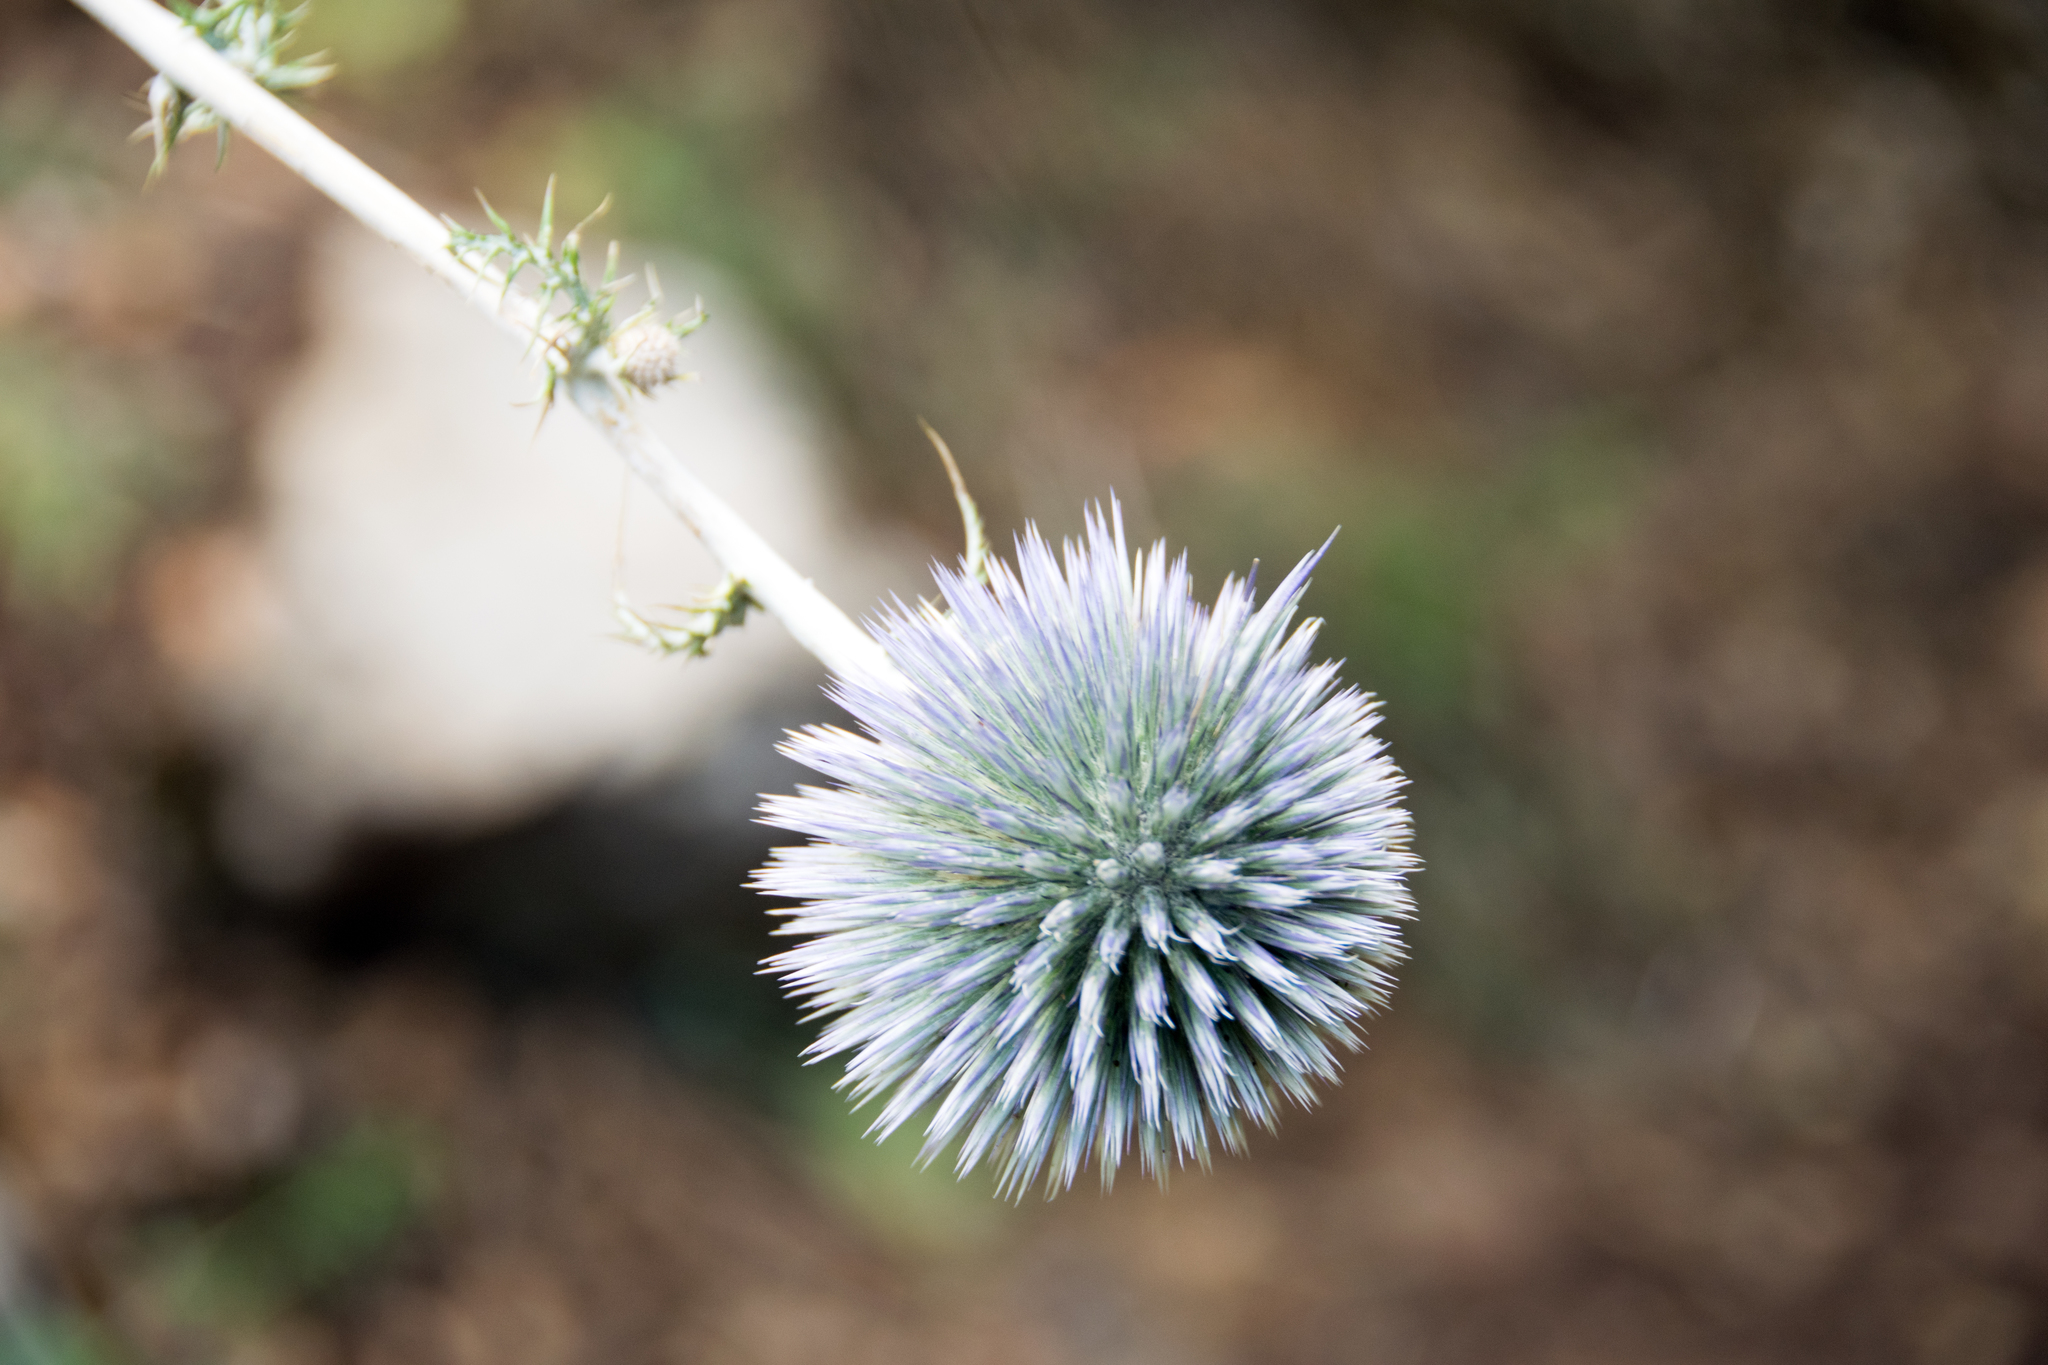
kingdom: Plantae
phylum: Tracheophyta
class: Magnoliopsida
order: Asterales
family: Asteraceae
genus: Echinops
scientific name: Echinops adenocaulos
